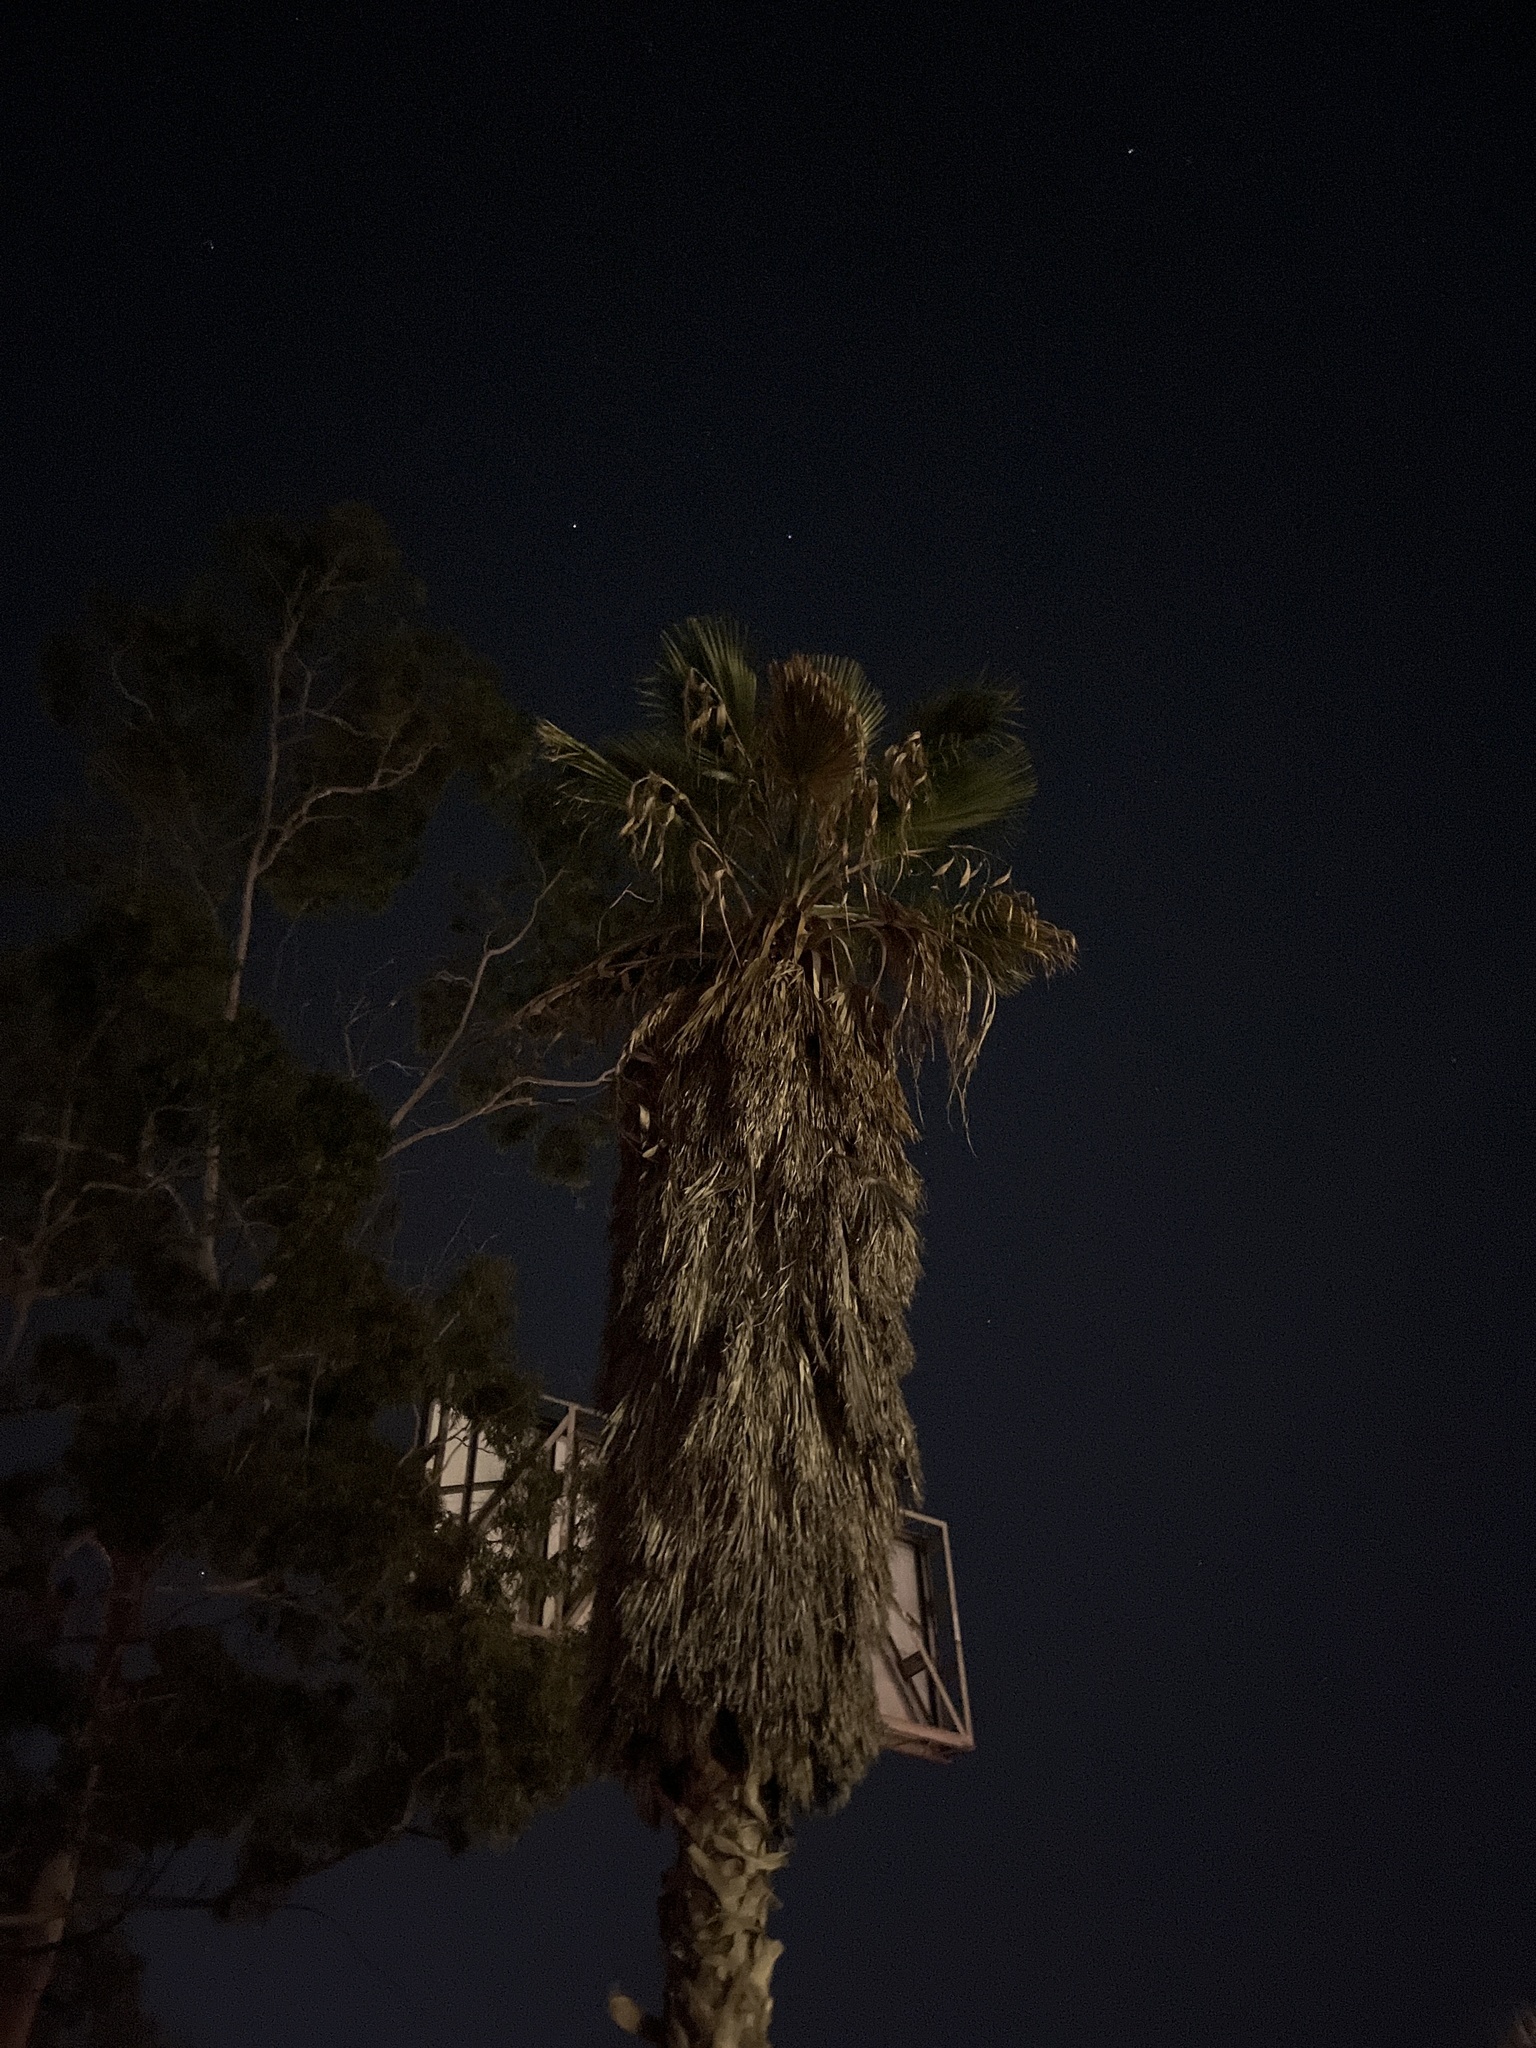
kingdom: Plantae
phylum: Tracheophyta
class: Liliopsida
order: Arecales
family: Arecaceae
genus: Washingtonia
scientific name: Washingtonia robusta
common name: Mexican fan palm
